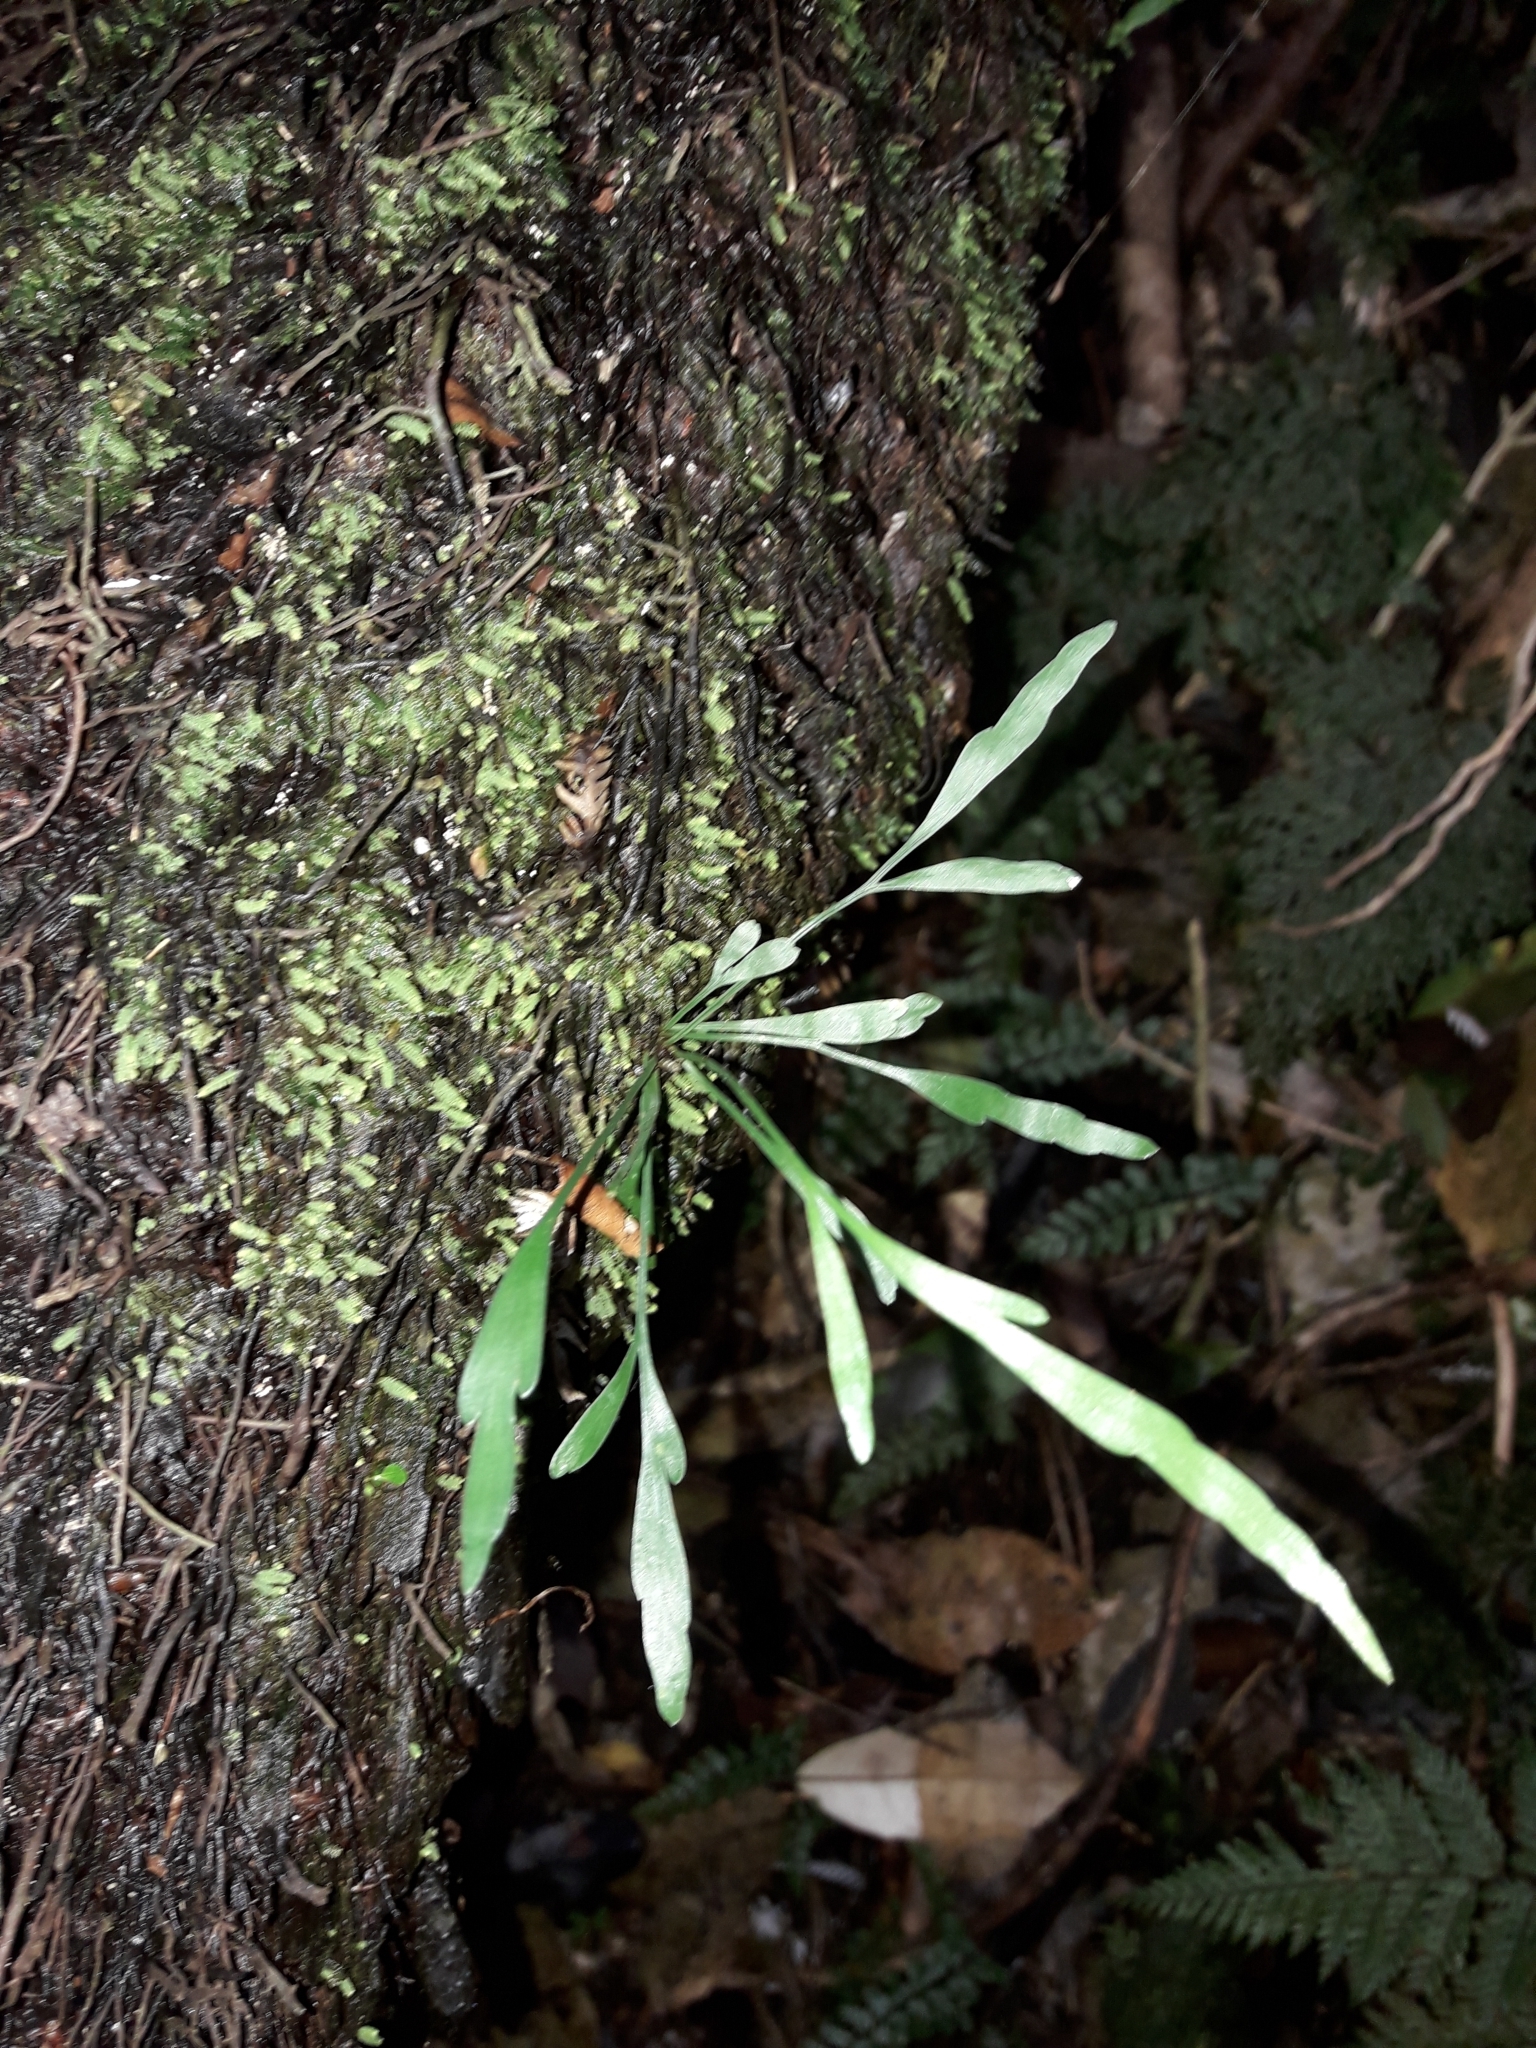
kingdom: Plantae
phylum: Tracheophyta
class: Polypodiopsida
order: Polypodiales
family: Aspleniaceae
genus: Asplenium
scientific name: Asplenium flaccidum
